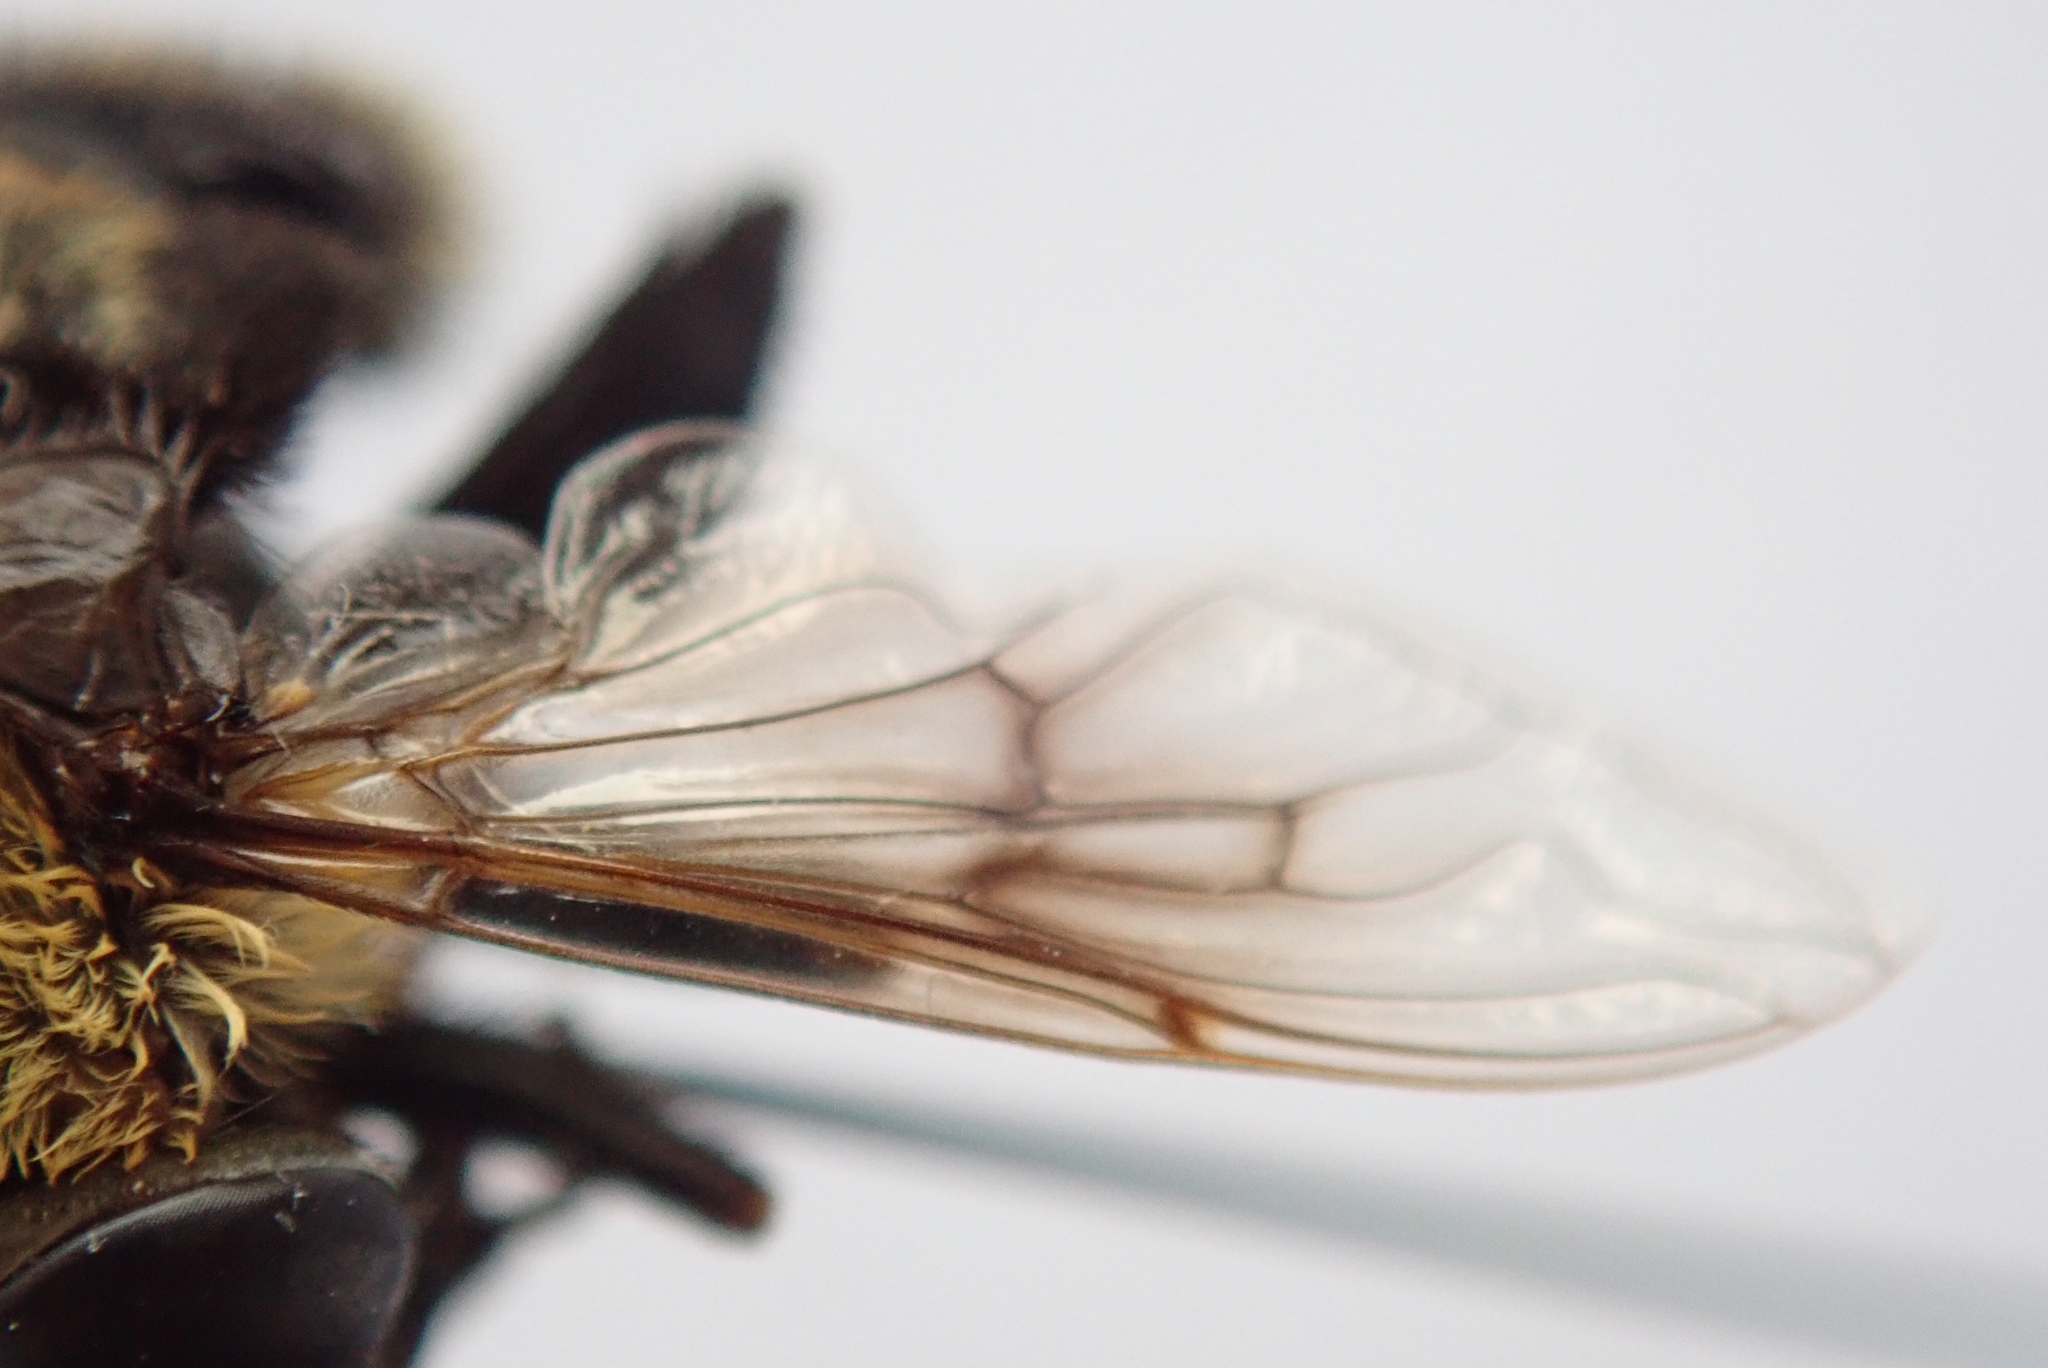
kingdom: Animalia
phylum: Arthropoda
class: Insecta
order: Diptera
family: Syrphidae
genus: Eristalis
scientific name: Eristalis flavipes
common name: Orange-legged drone fly
